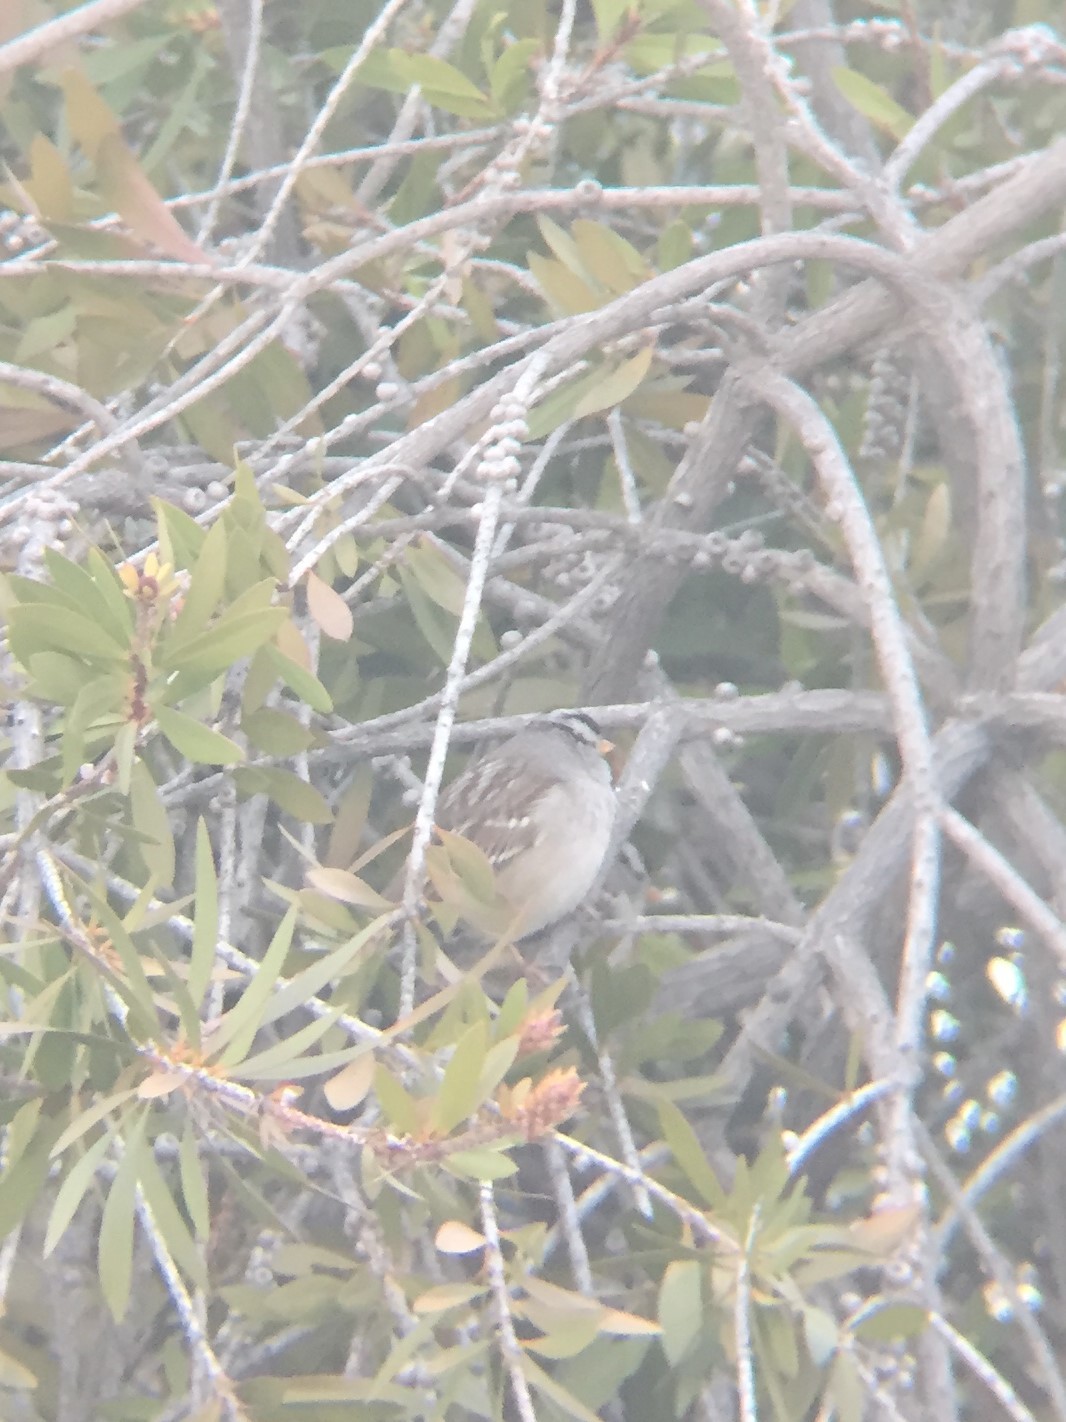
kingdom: Animalia
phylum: Chordata
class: Aves
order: Passeriformes
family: Passerellidae
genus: Zonotrichia
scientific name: Zonotrichia leucophrys
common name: White-crowned sparrow
